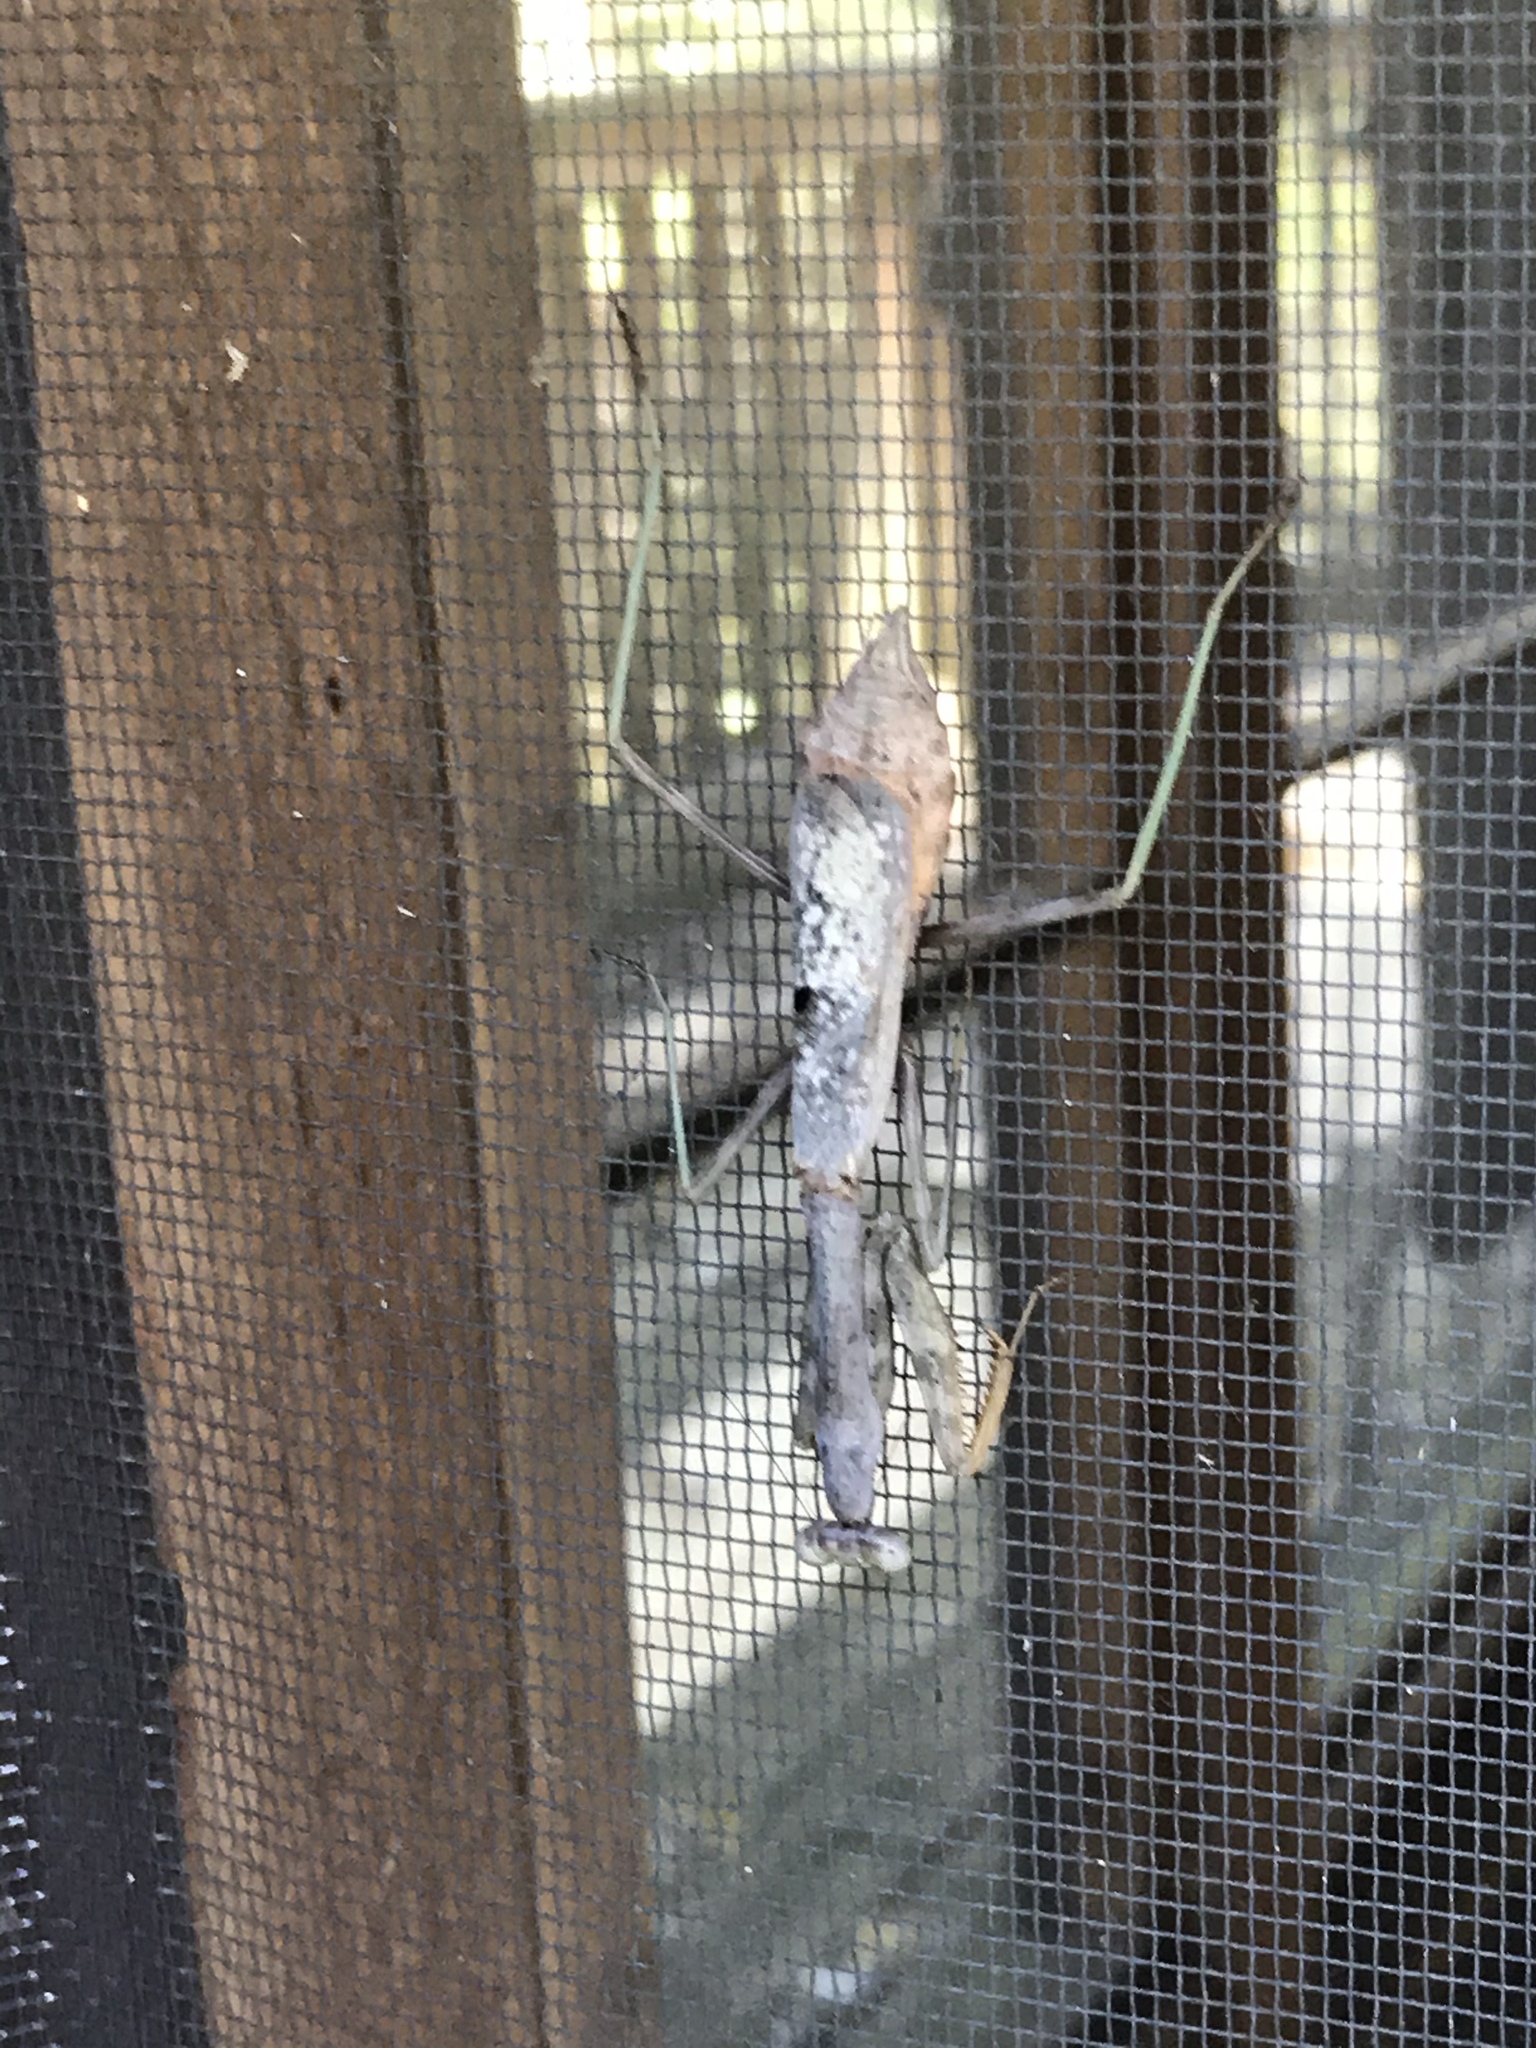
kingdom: Animalia
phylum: Arthropoda
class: Insecta
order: Mantodea
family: Mantidae
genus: Stagmomantis
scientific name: Stagmomantis carolina
